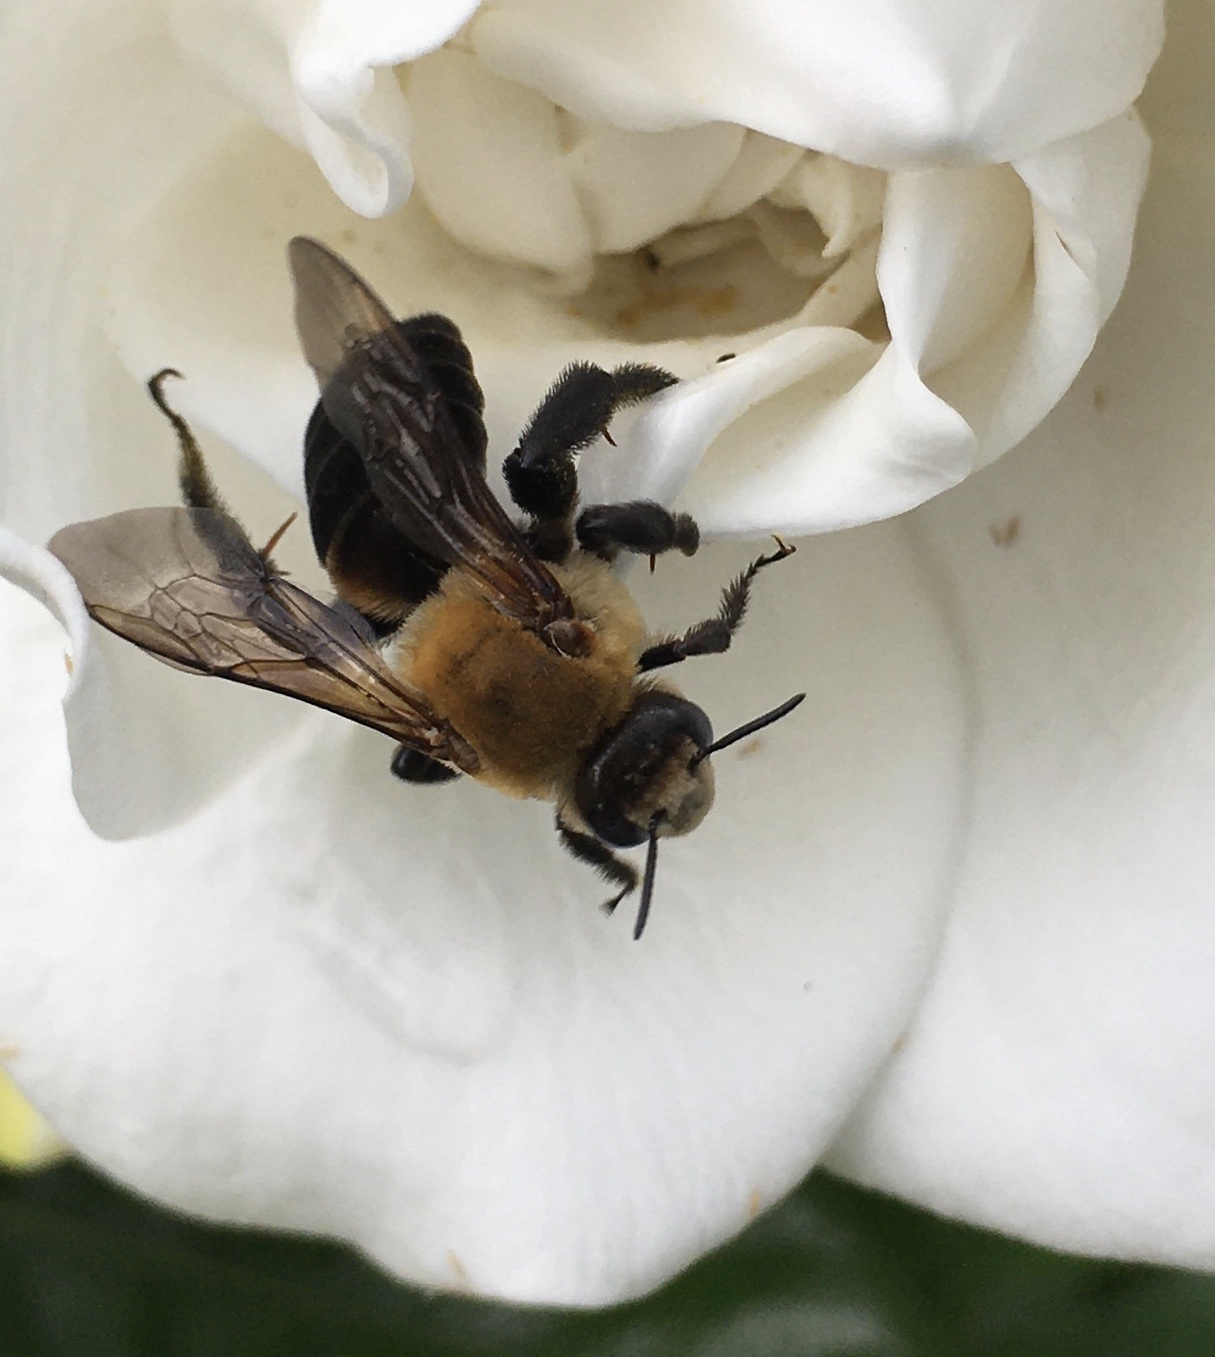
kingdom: Animalia
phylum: Arthropoda
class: Insecta
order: Hymenoptera
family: Apidae
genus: Ptilothrix
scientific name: Ptilothrix bombiformis
